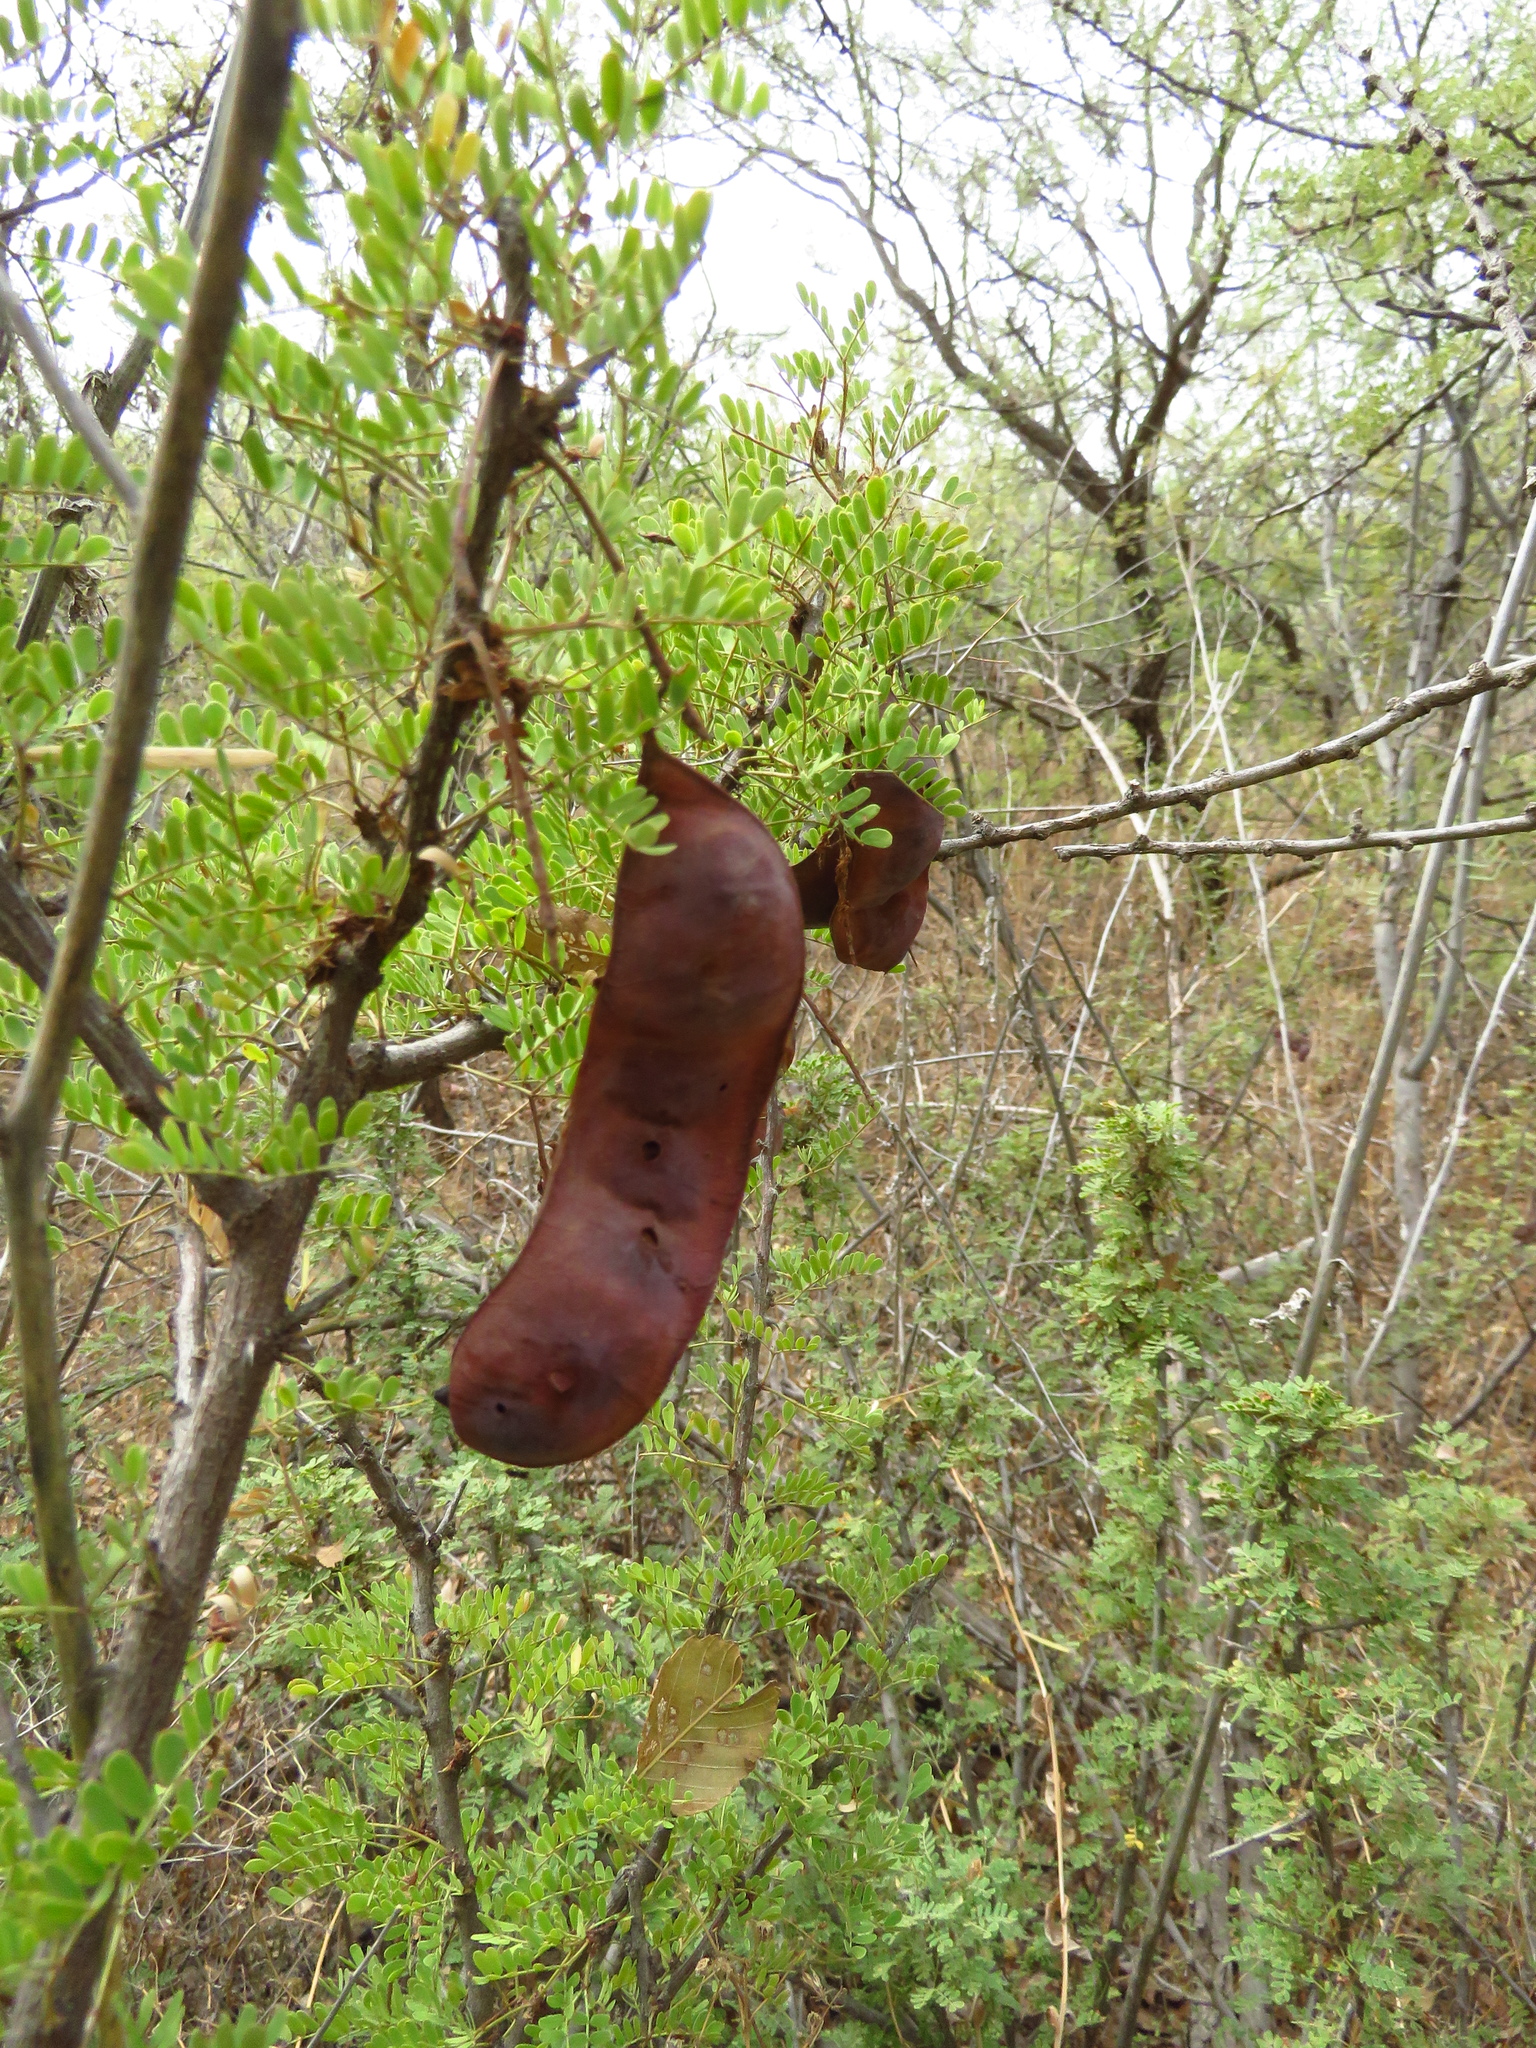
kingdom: Plantae
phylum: Tracheophyta
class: Magnoliopsida
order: Fabales
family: Fabaceae
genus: Senegalia
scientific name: Senegalia greggii
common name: Texas-mimosa
